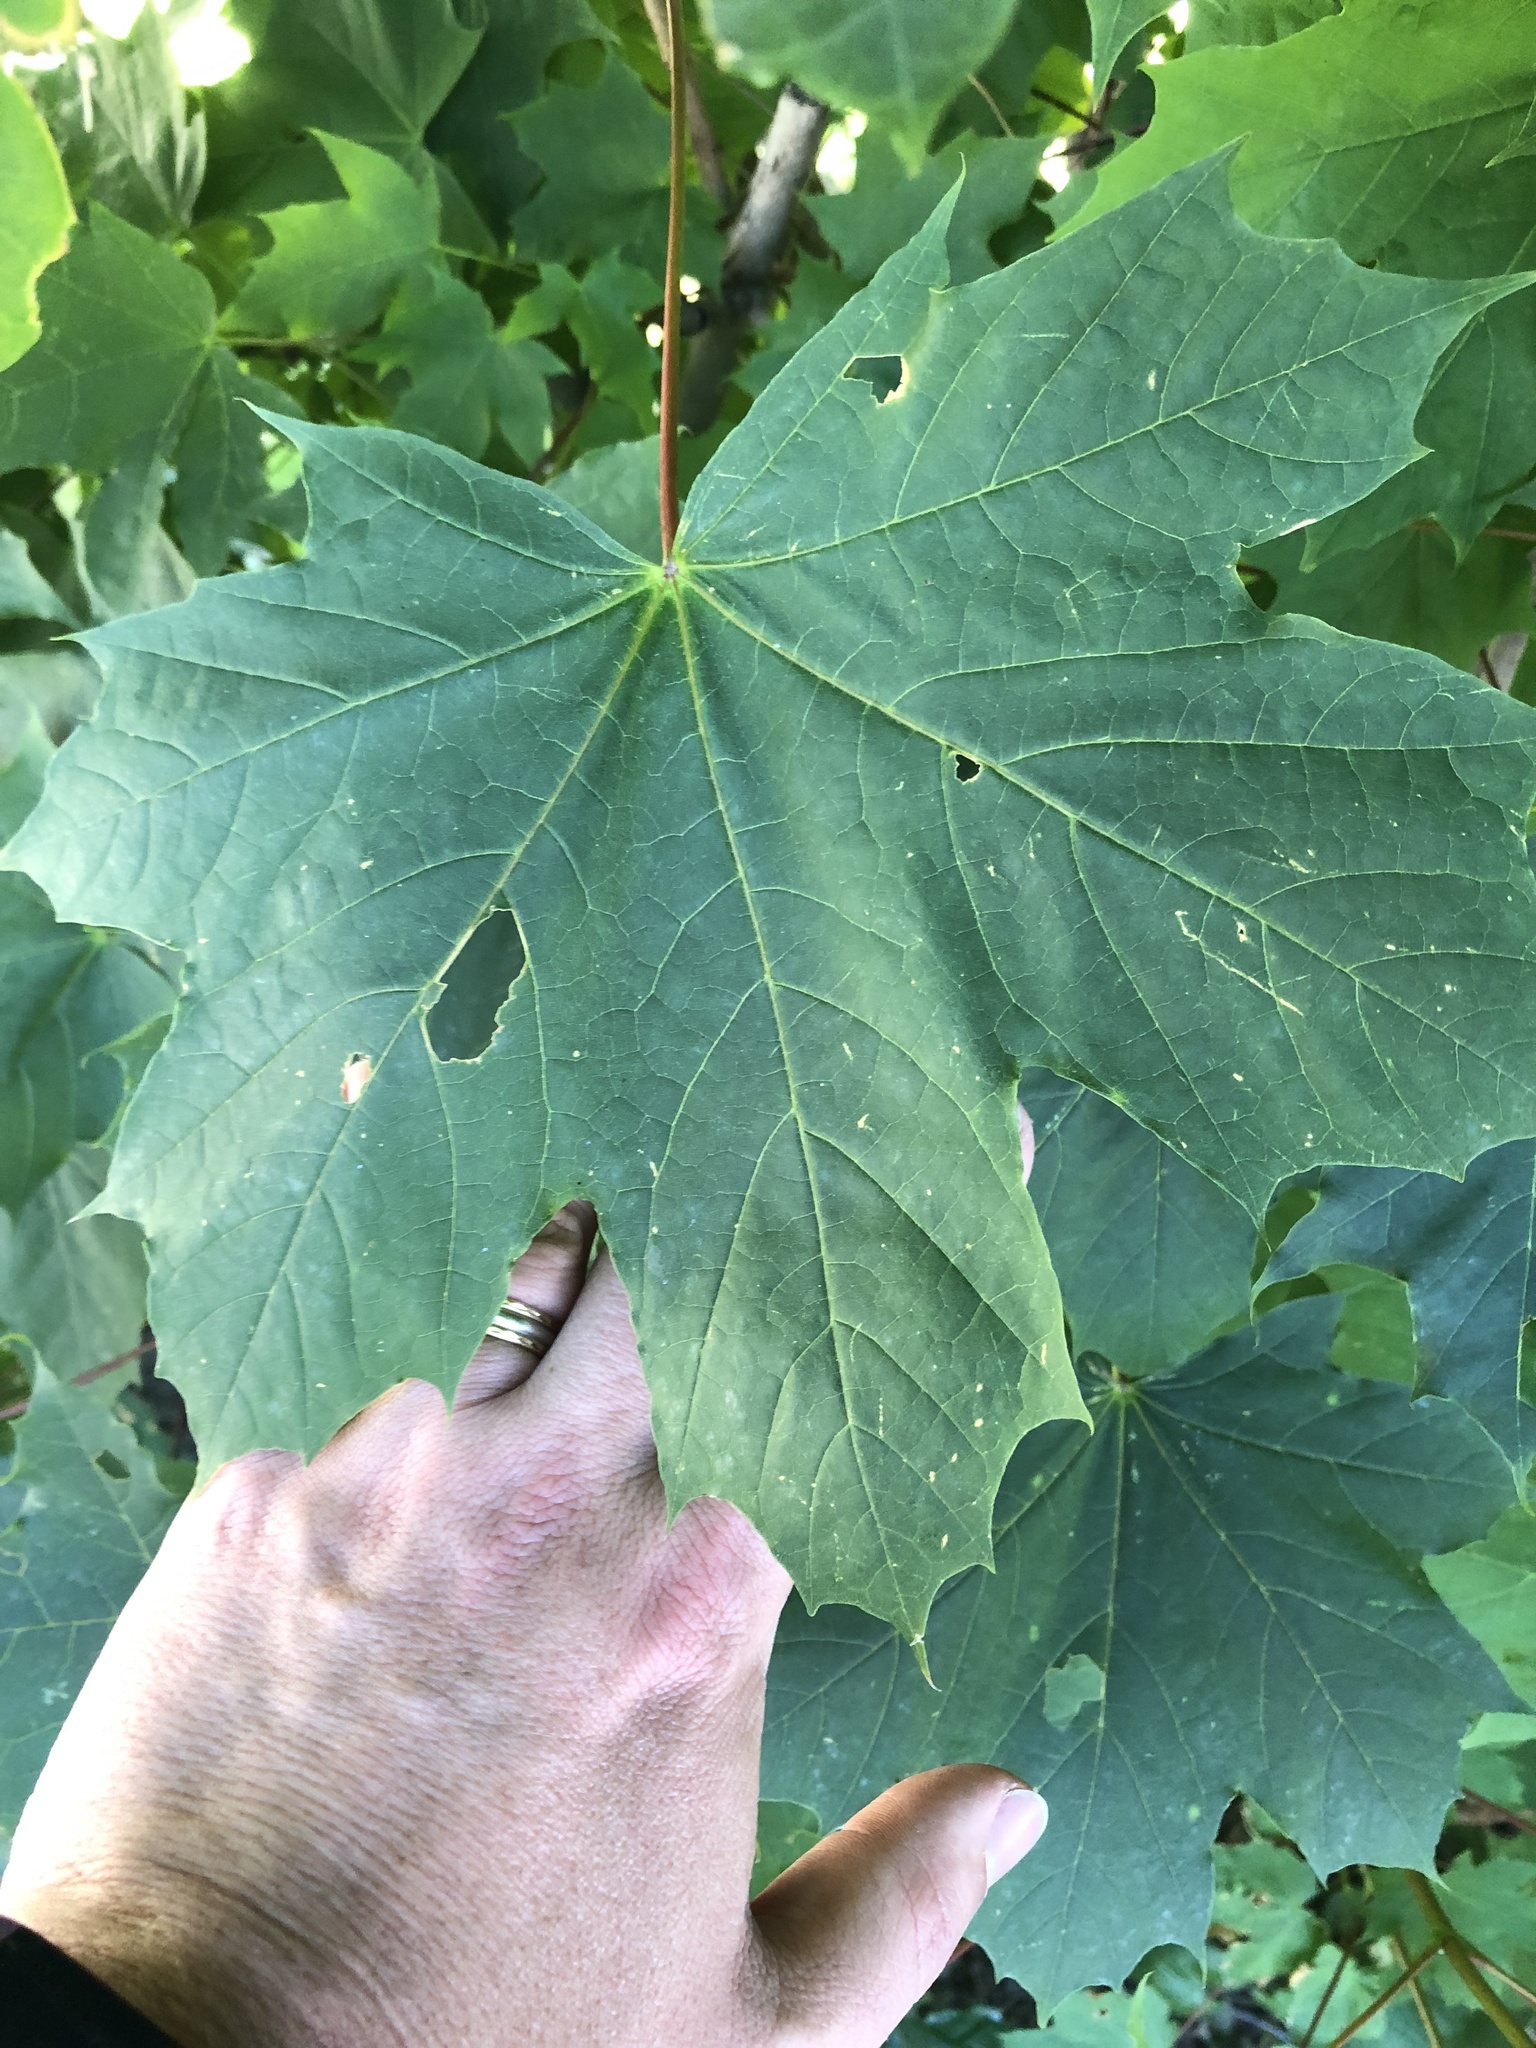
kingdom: Plantae
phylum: Tracheophyta
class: Magnoliopsida
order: Sapindales
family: Sapindaceae
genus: Acer
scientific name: Acer platanoides
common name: Norway maple
